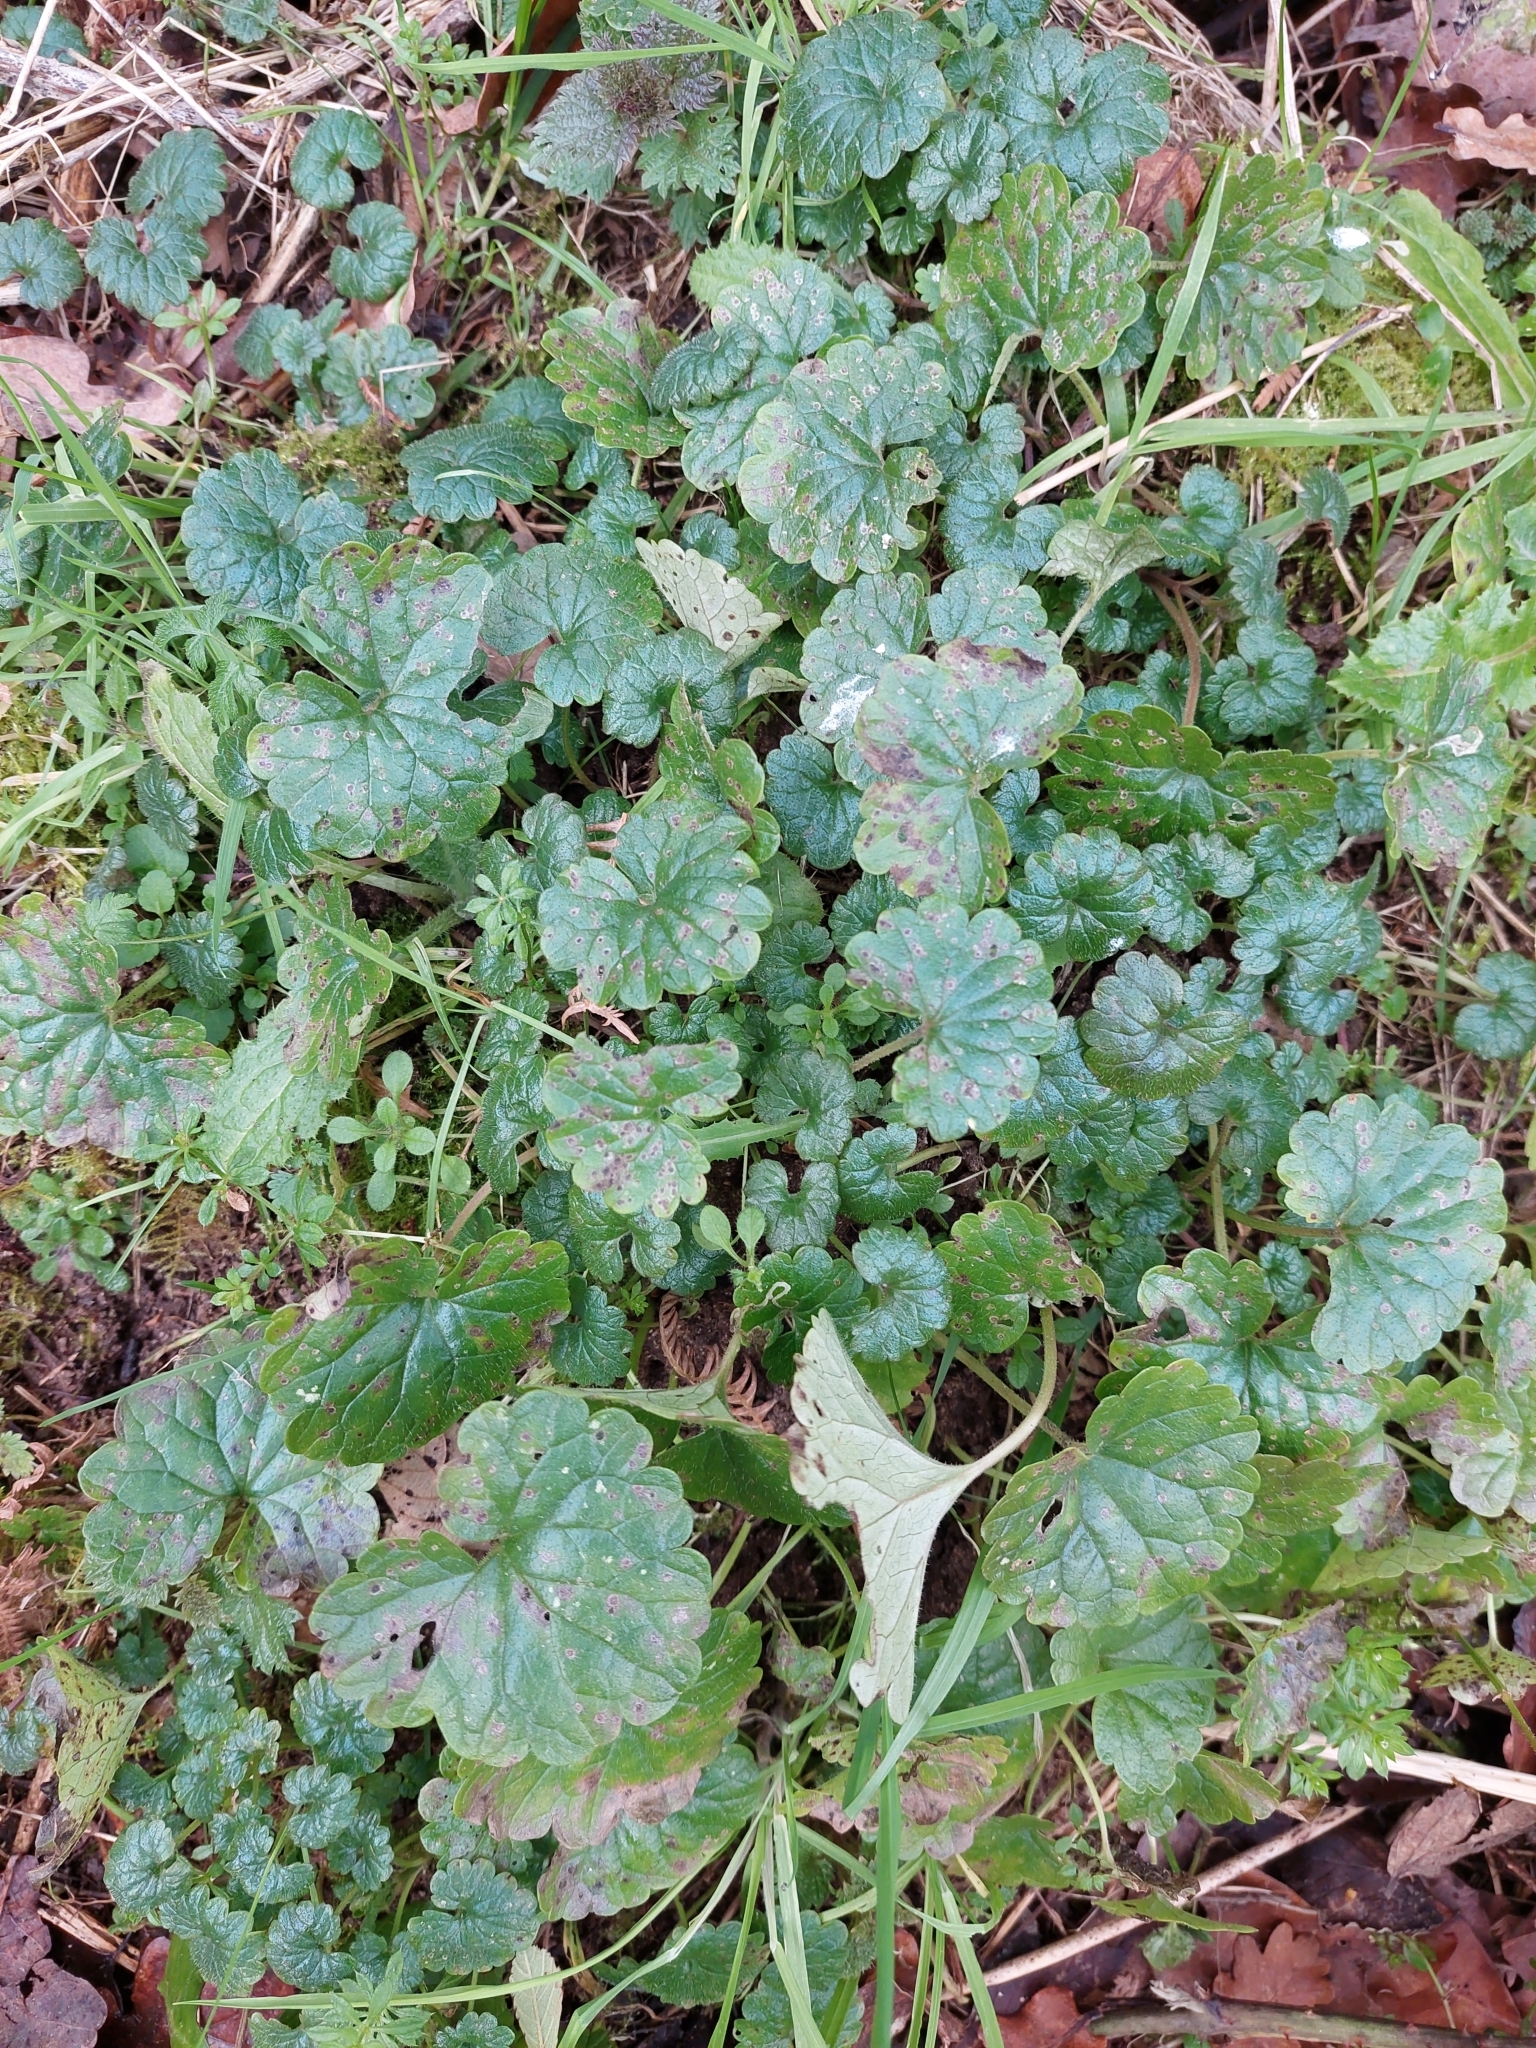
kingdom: Plantae
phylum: Tracheophyta
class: Magnoliopsida
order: Lamiales
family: Lamiaceae
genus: Glechoma
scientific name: Glechoma hederacea
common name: Ground ivy
